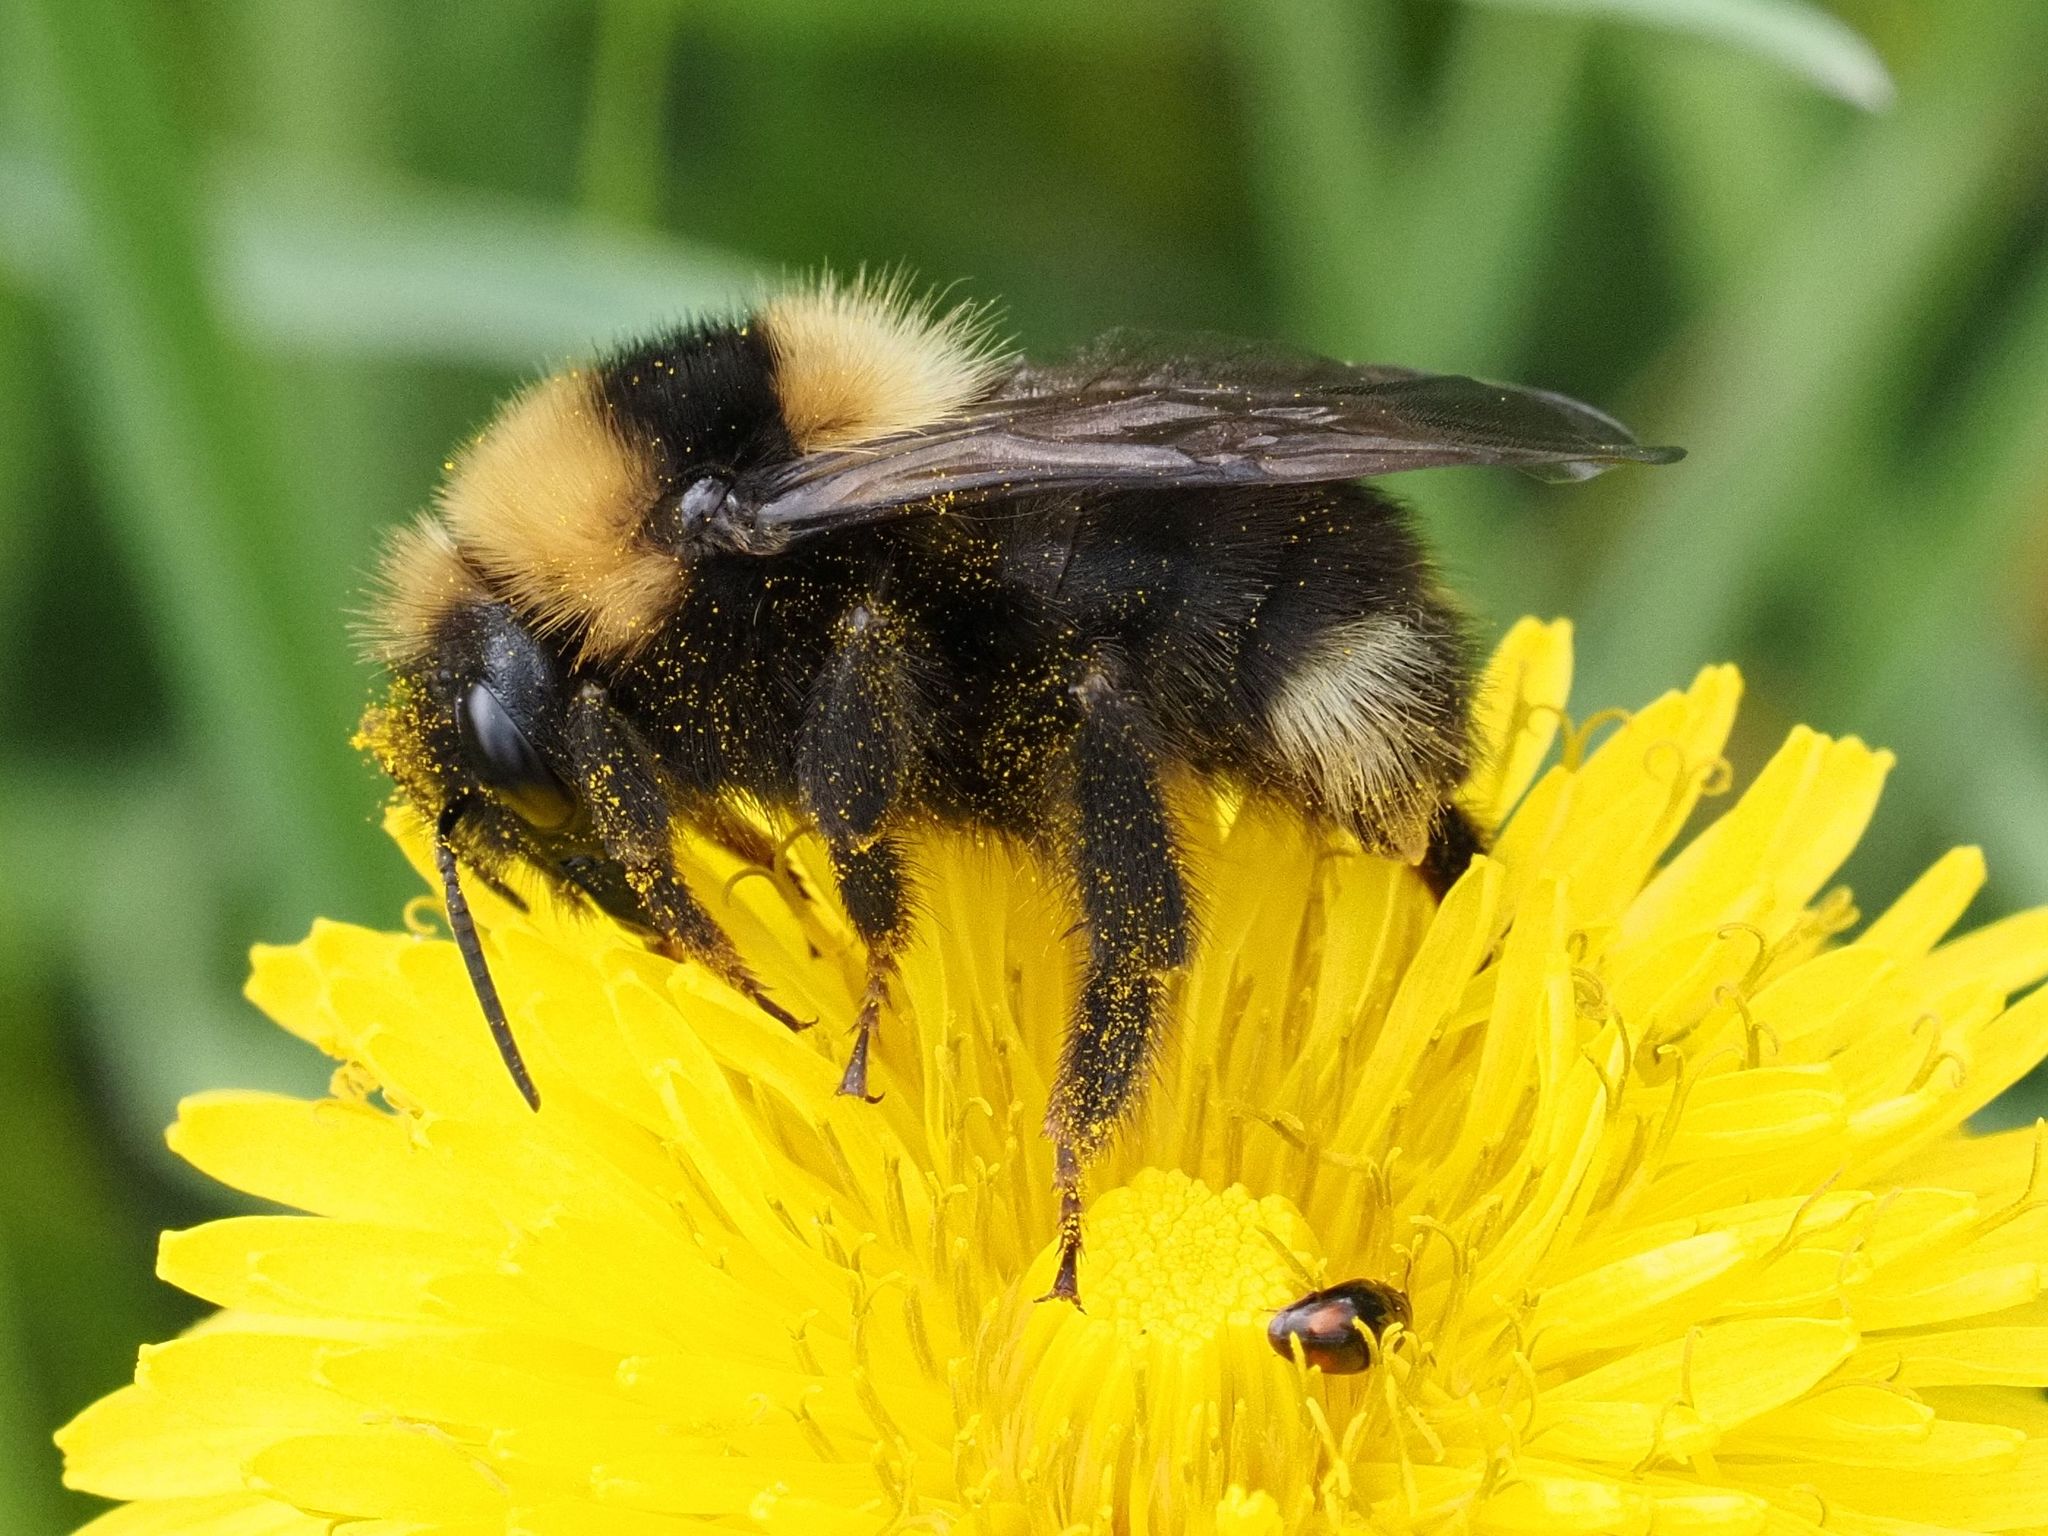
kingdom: Animalia
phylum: Arthropoda
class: Insecta
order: Hymenoptera
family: Apidae
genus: Bombus
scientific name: Bombus barbutellus
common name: Barbut's cuckoo-bee
